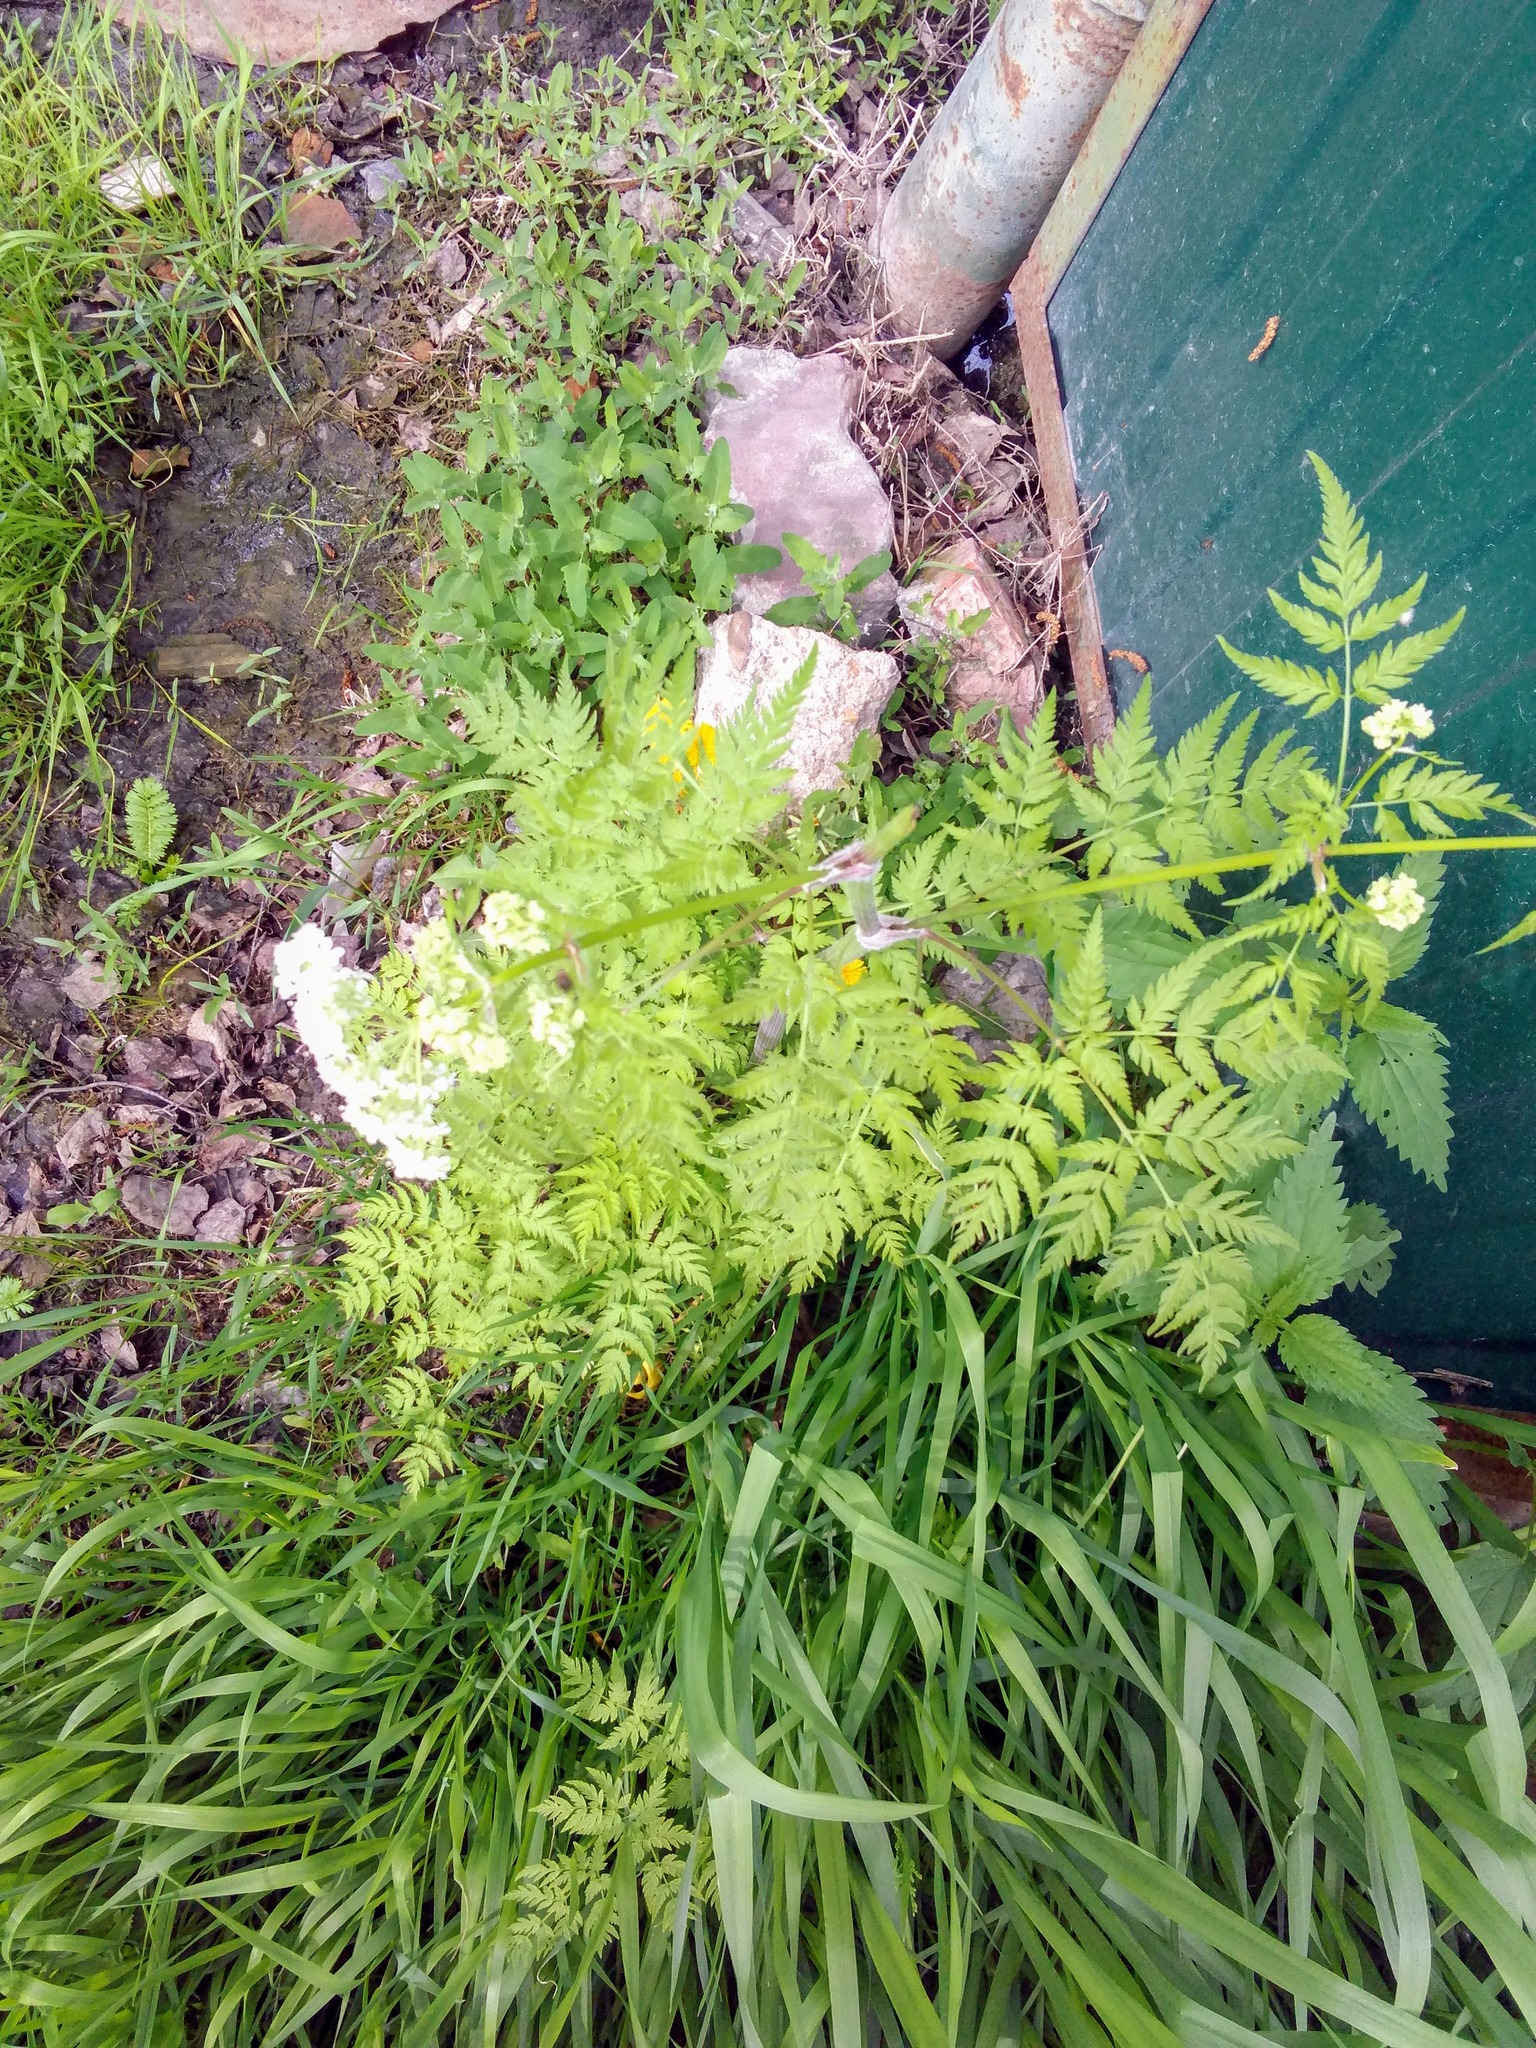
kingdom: Plantae
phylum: Tracheophyta
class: Magnoliopsida
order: Apiales
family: Apiaceae
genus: Anthriscus
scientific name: Anthriscus sylvestris
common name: Cow parsley
